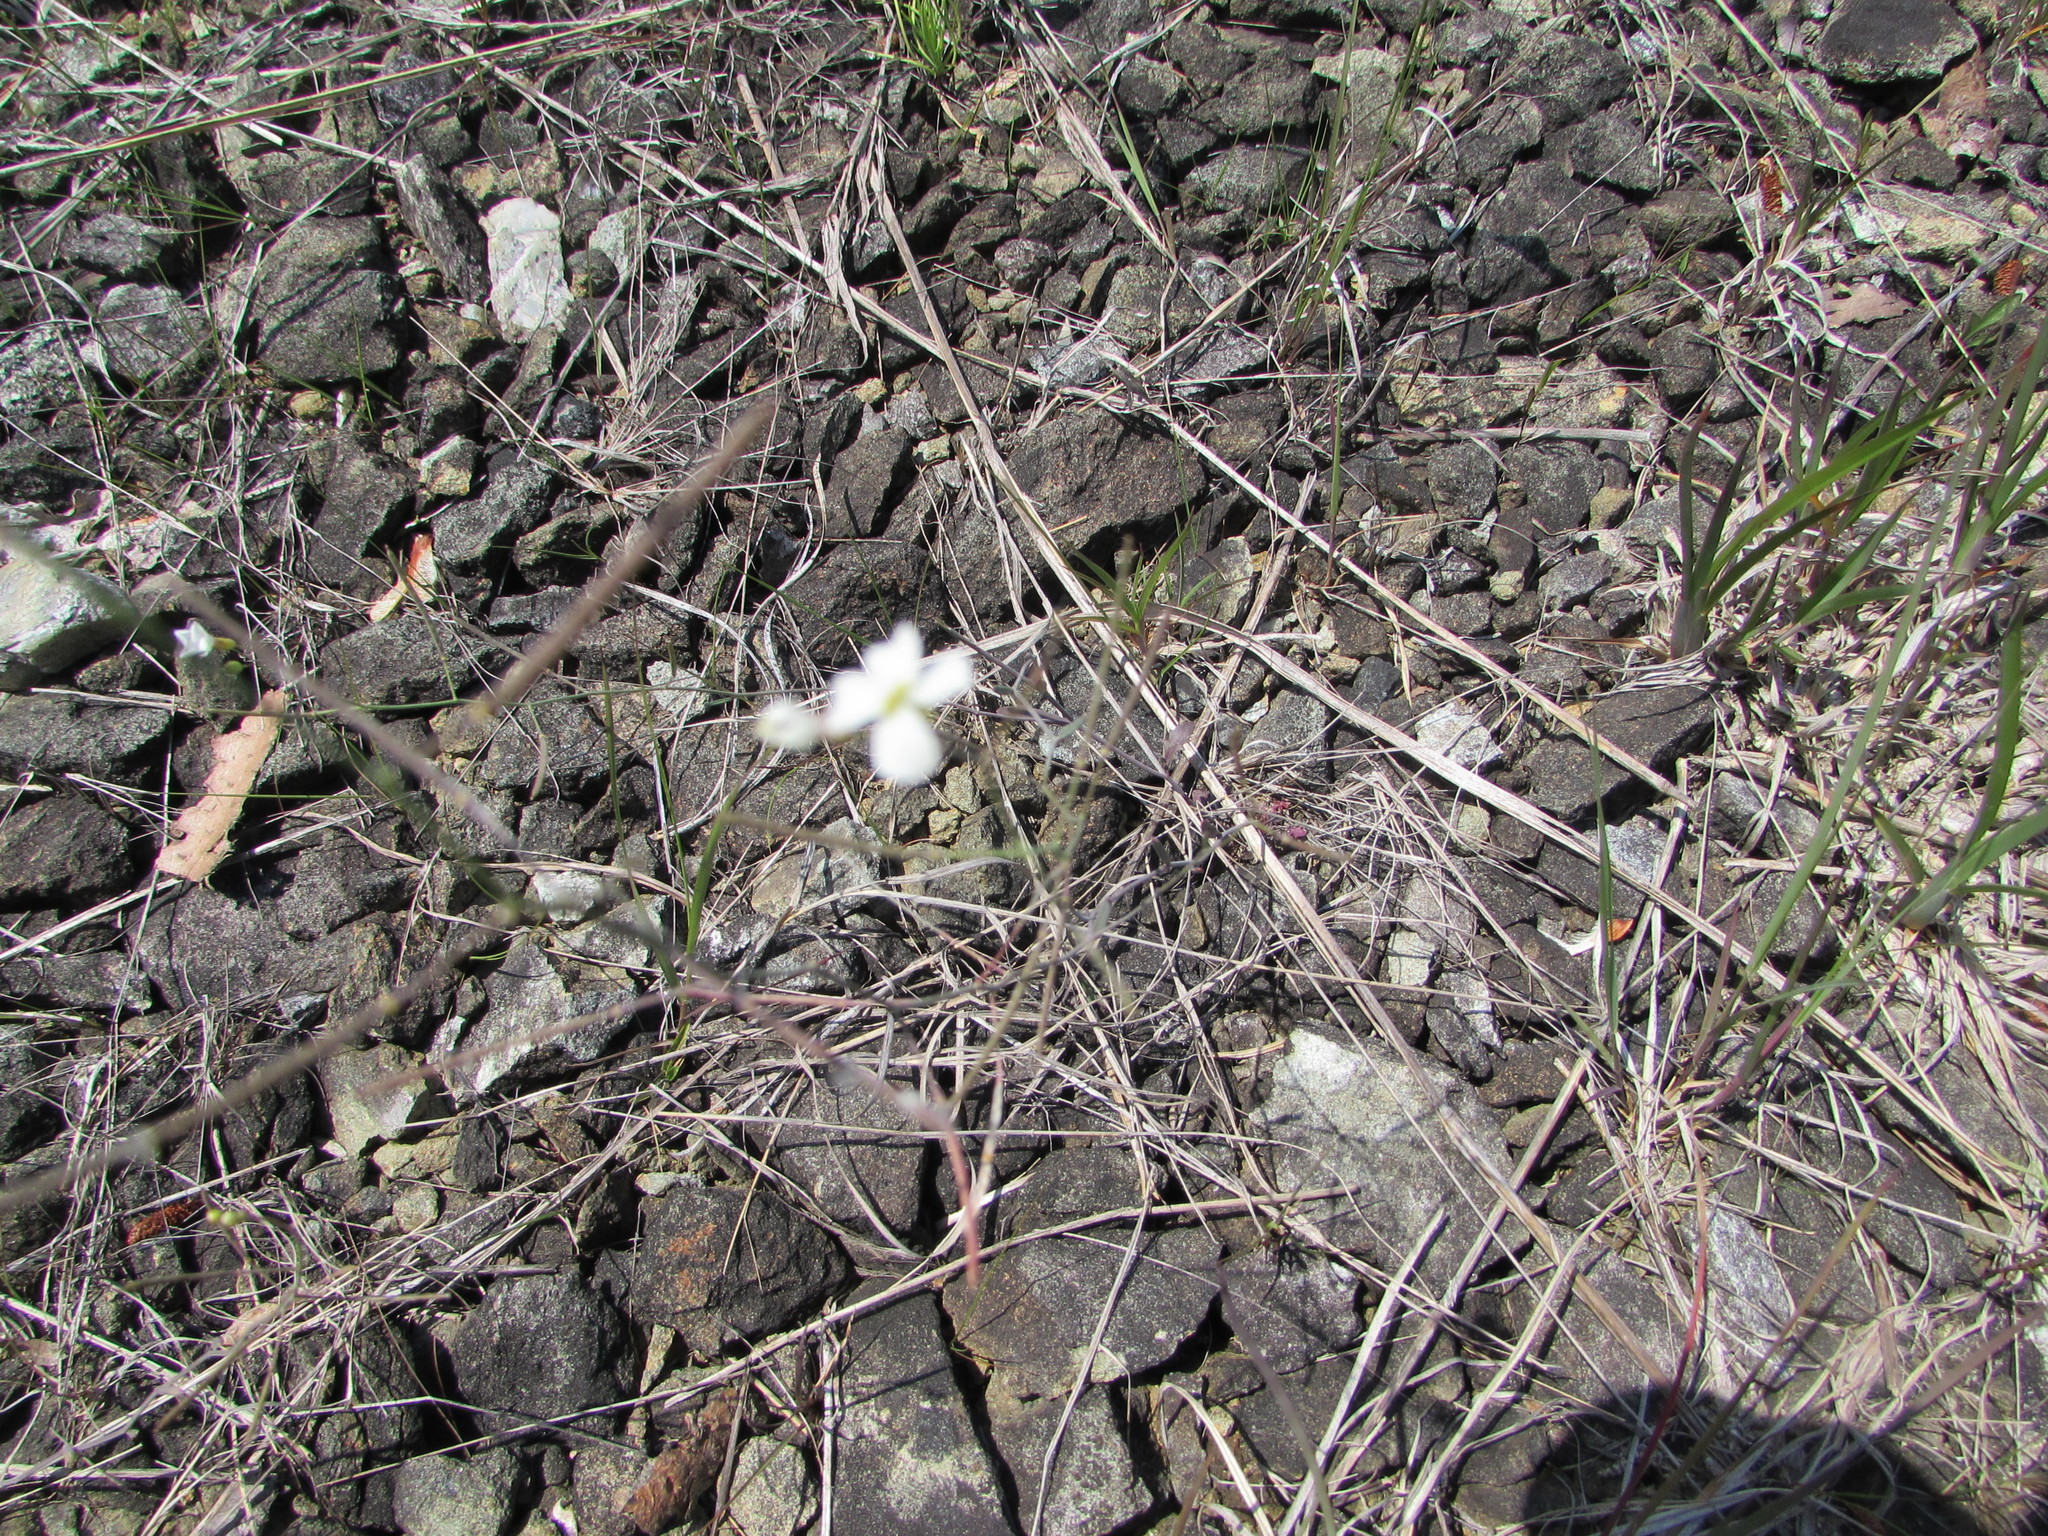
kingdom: Plantae
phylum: Tracheophyta
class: Magnoliopsida
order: Brassicales
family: Brassicaceae
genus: Arabidopsis
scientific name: Arabidopsis lyrata
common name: Lyrate rockcress
